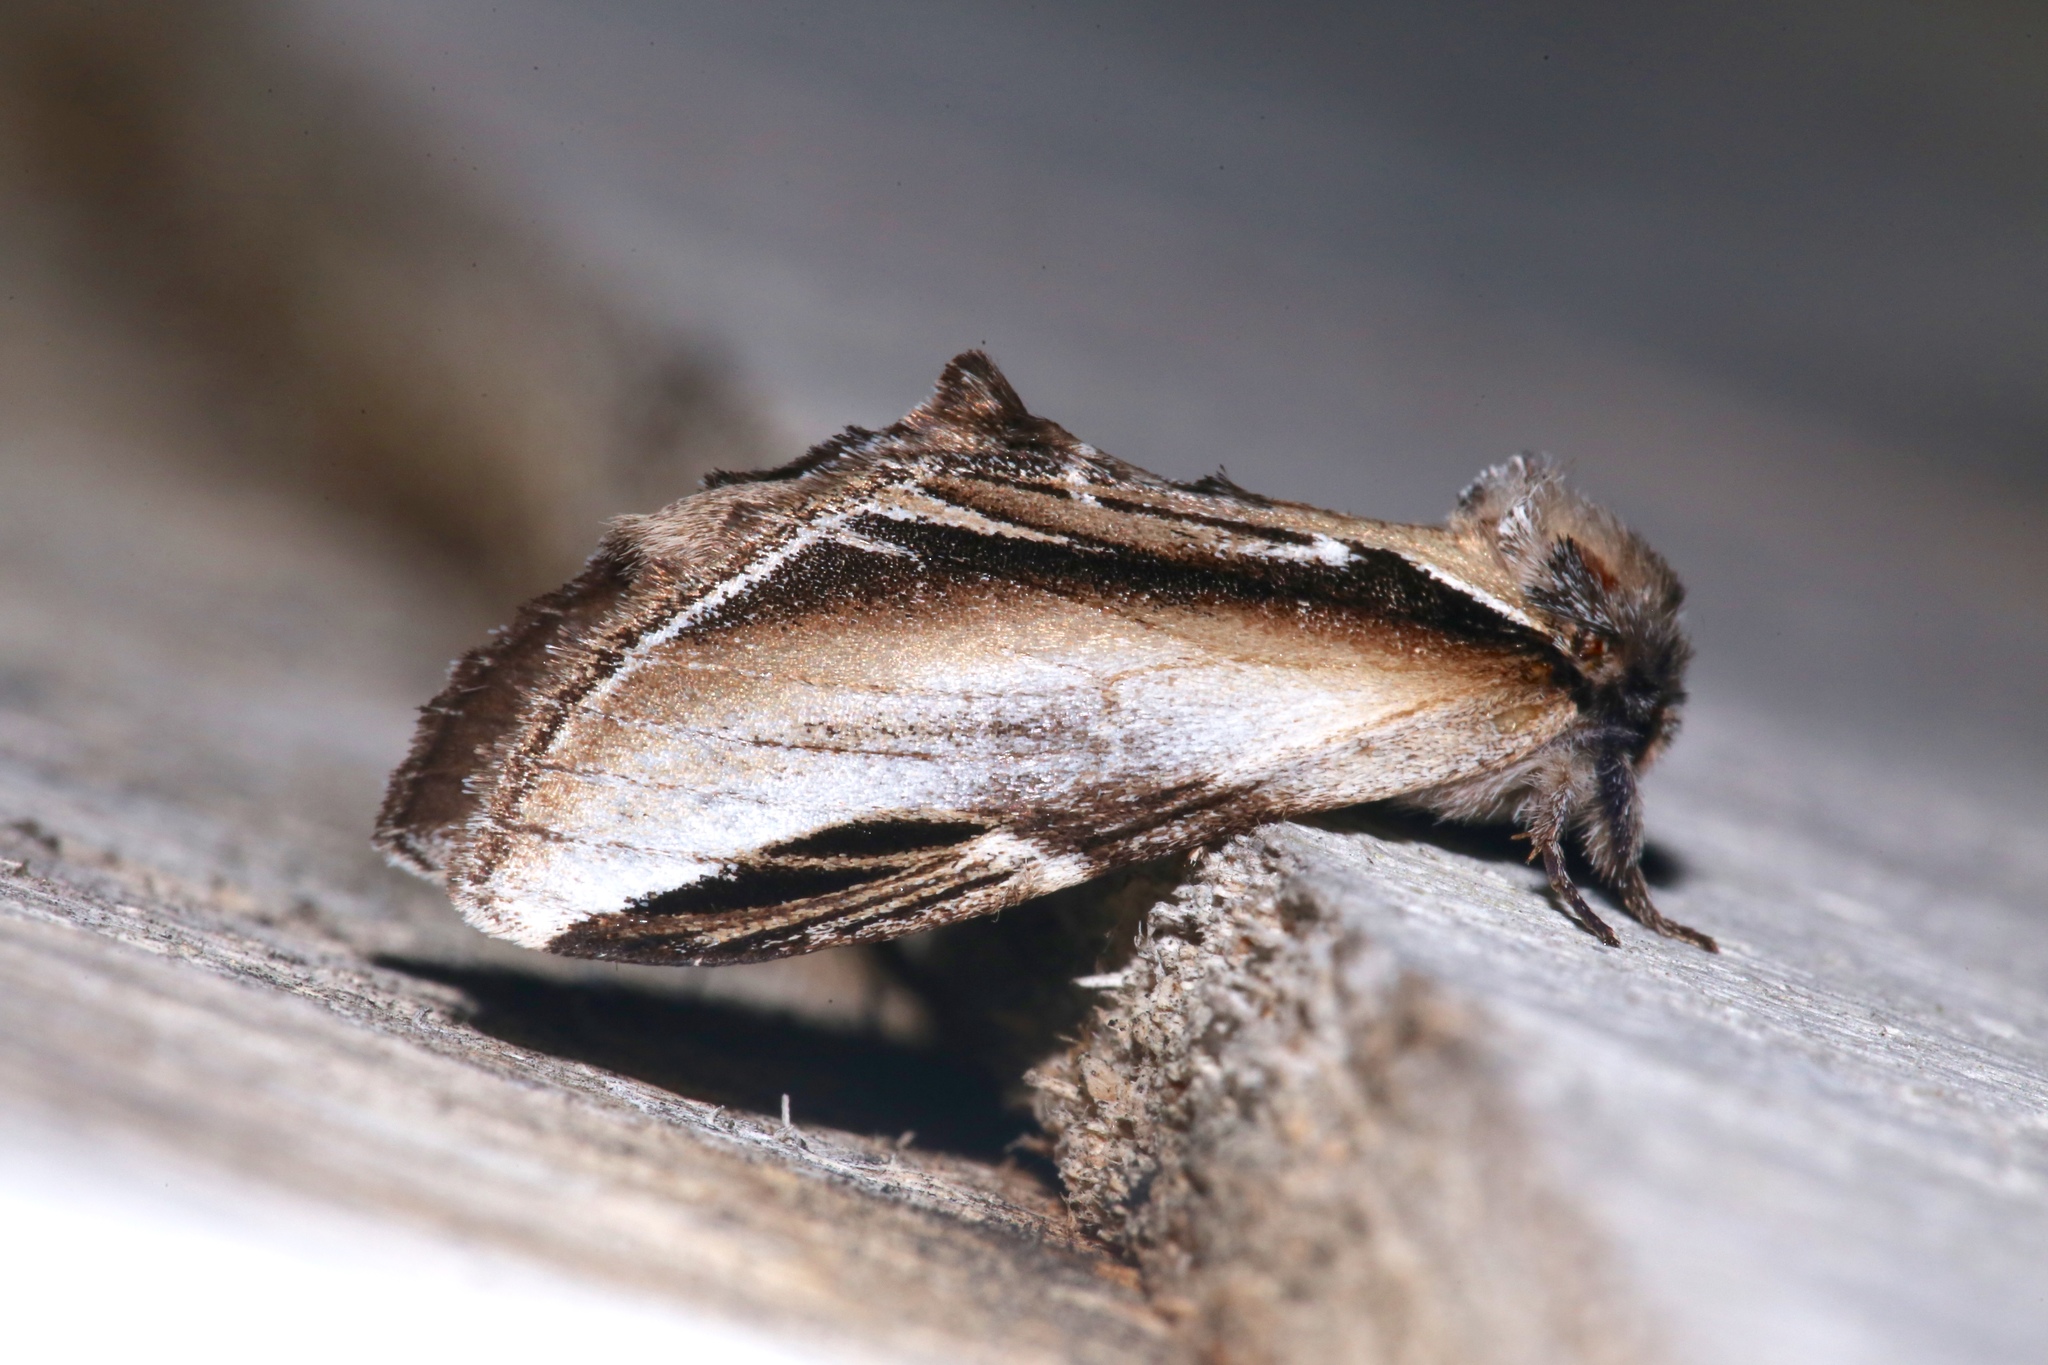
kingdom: Animalia
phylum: Arthropoda
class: Insecta
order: Lepidoptera
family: Notodontidae
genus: Pheosia
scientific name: Pheosia rimosa
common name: Black-rimmed prominent
